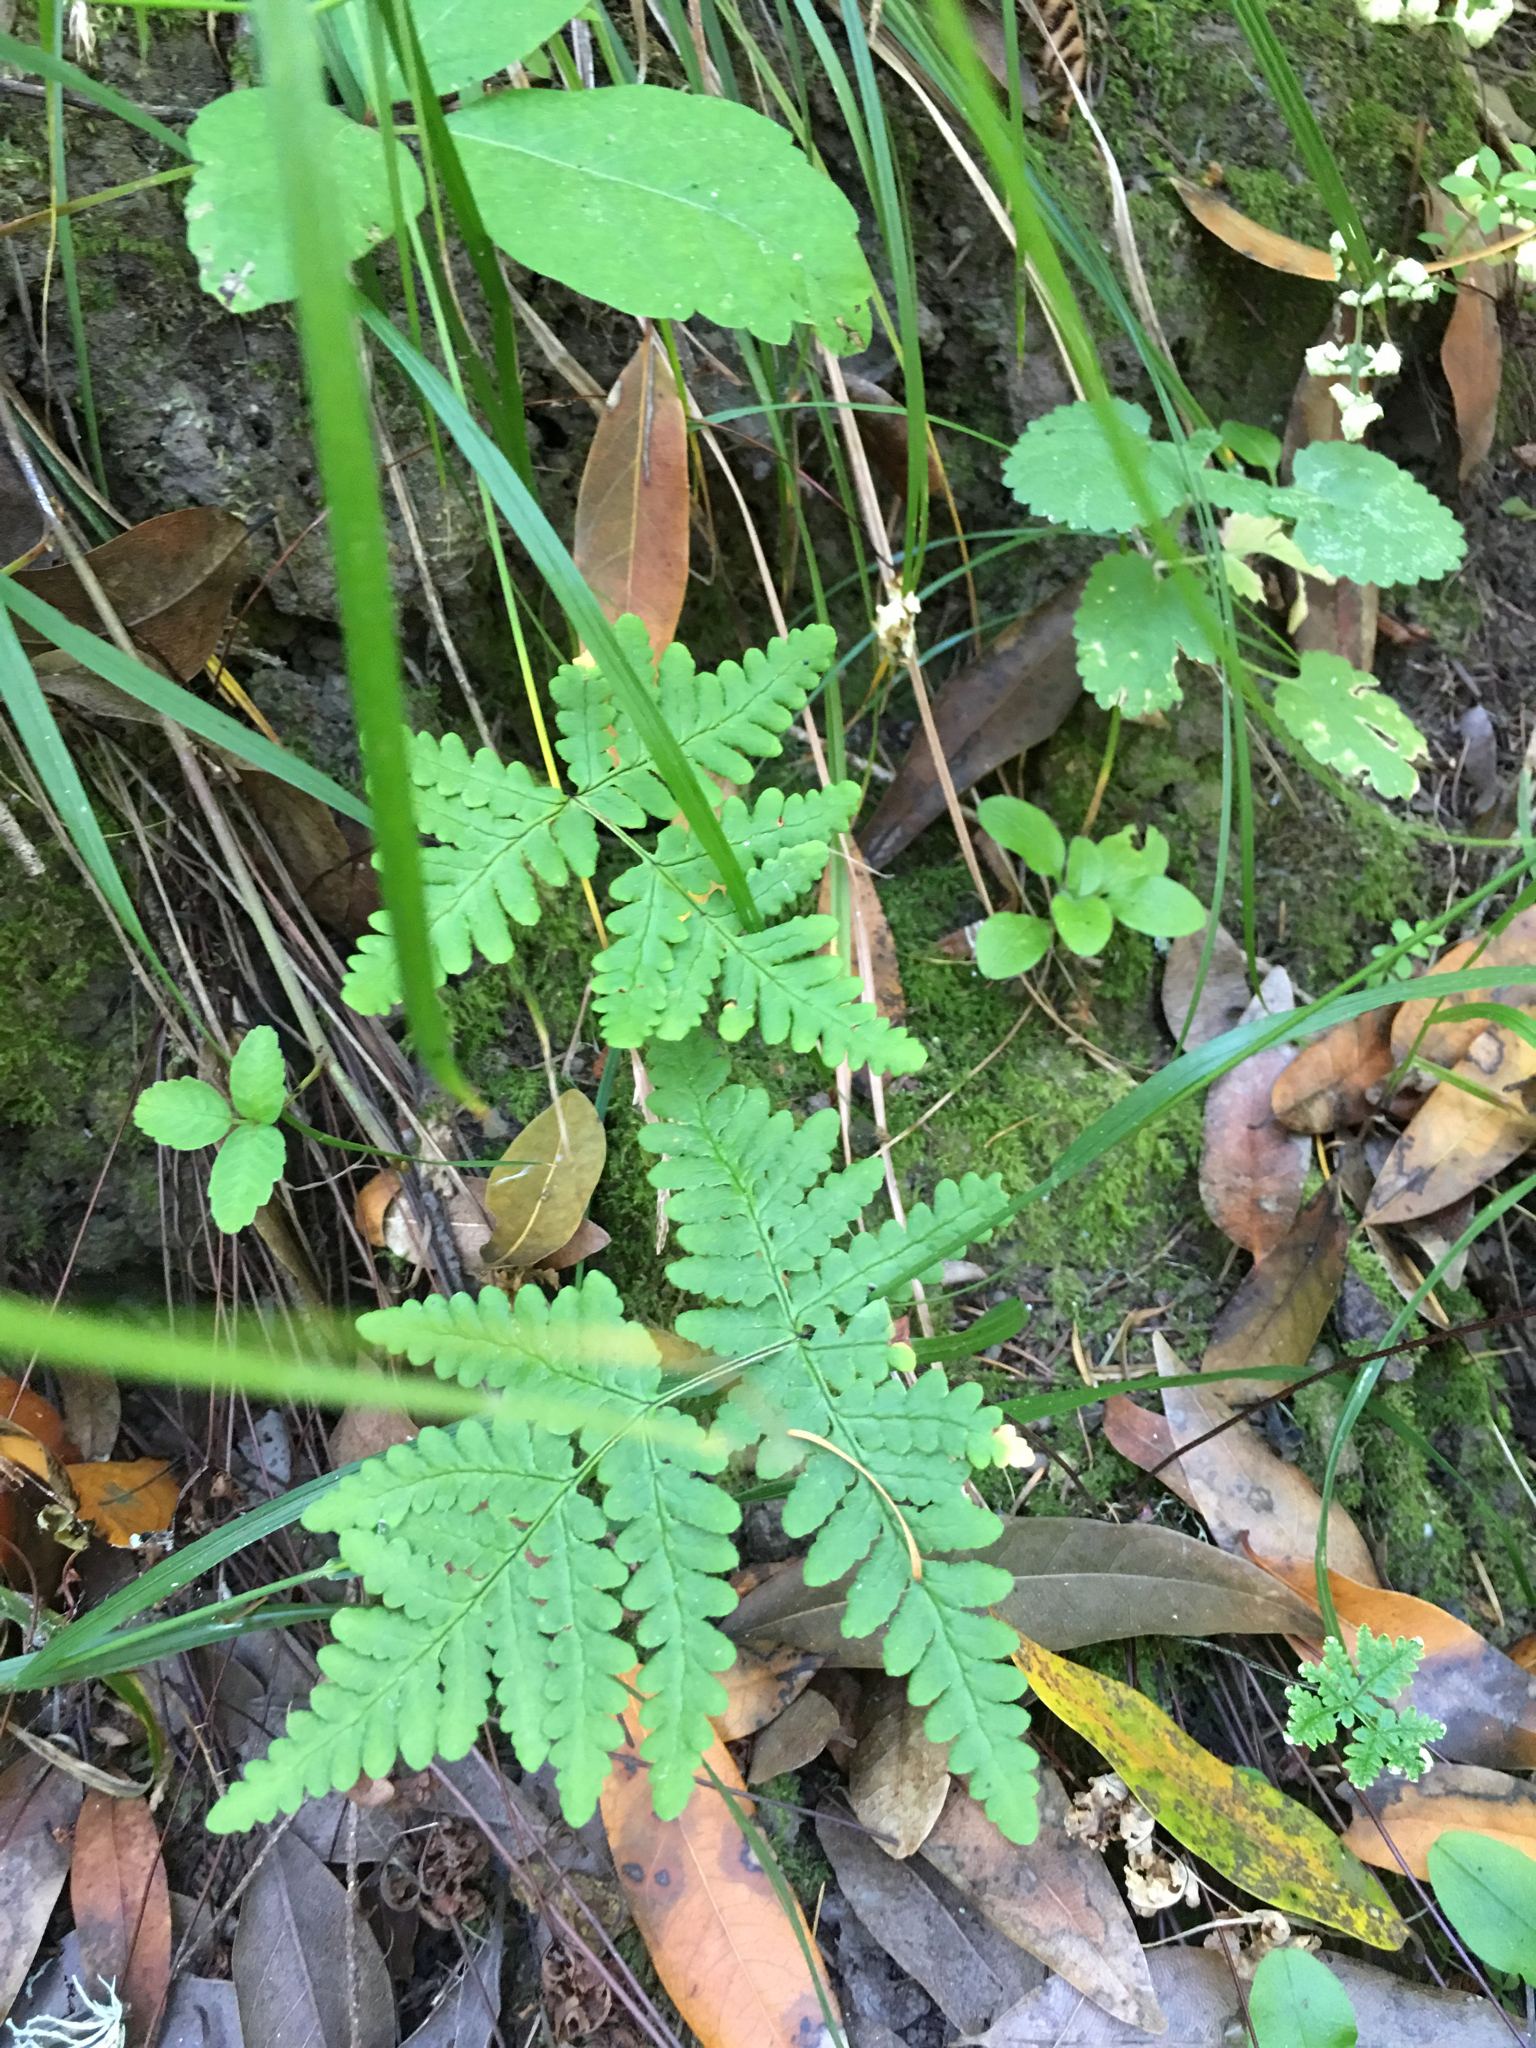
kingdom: Plantae
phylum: Tracheophyta
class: Polypodiopsida
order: Polypodiales
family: Pteridaceae
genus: Pentagramma
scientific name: Pentagramma triangularis
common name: Gold fern
